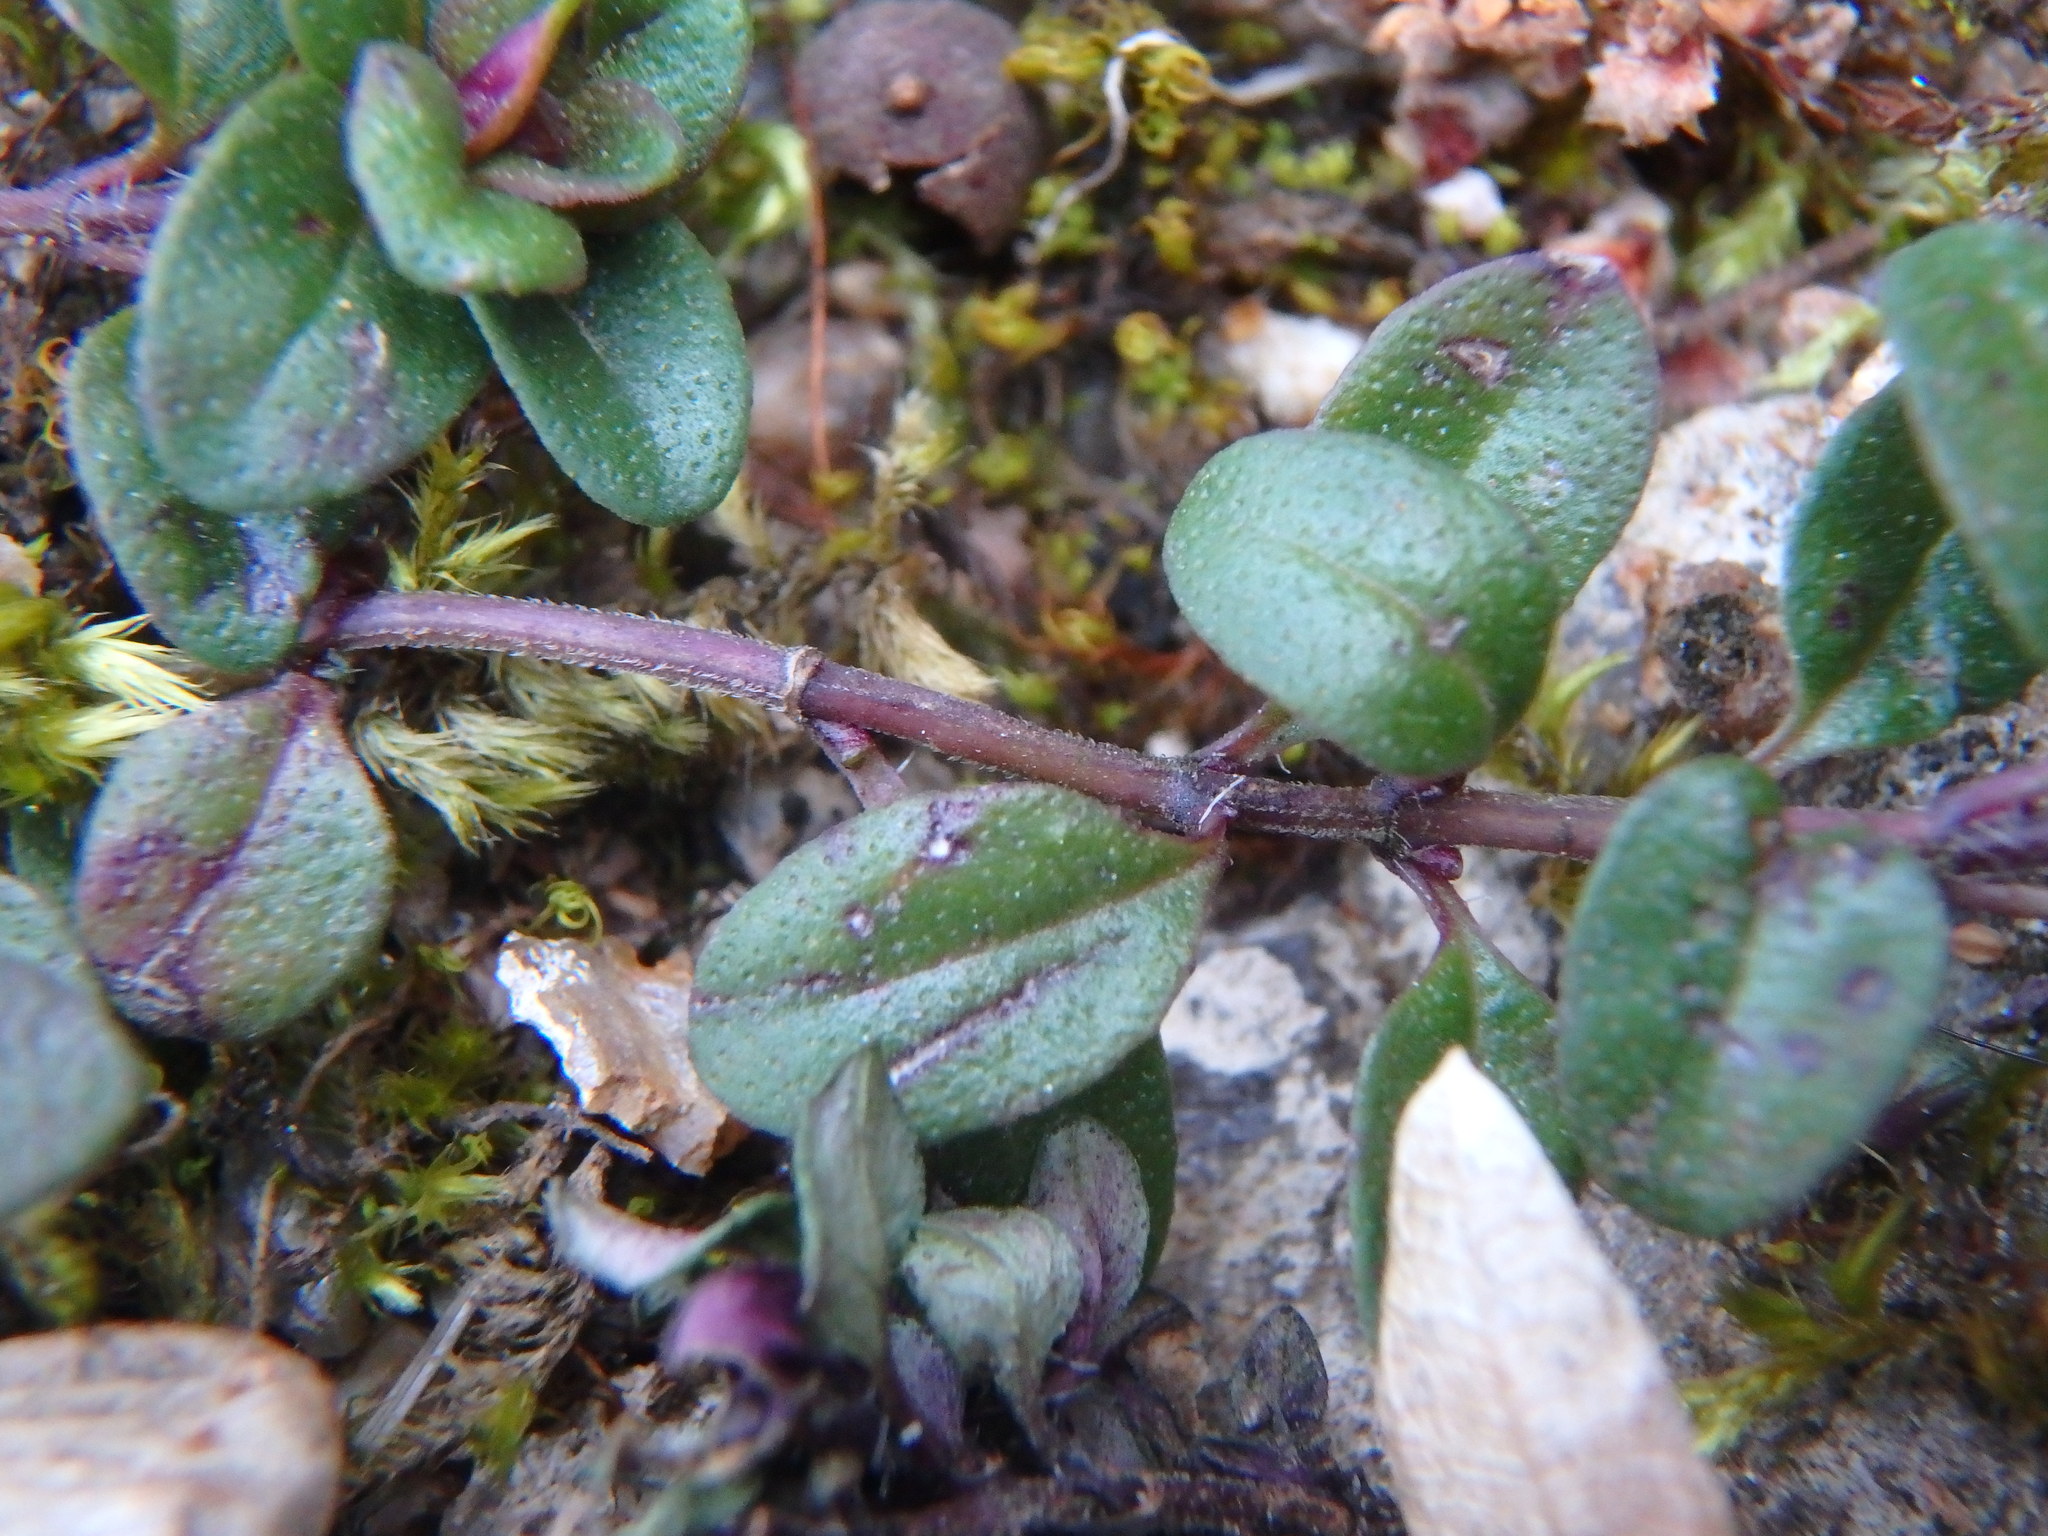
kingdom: Plantae
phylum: Tracheophyta
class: Magnoliopsida
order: Lamiales
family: Lamiaceae
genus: Thymus
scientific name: Thymus pulegioides
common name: Large thyme
